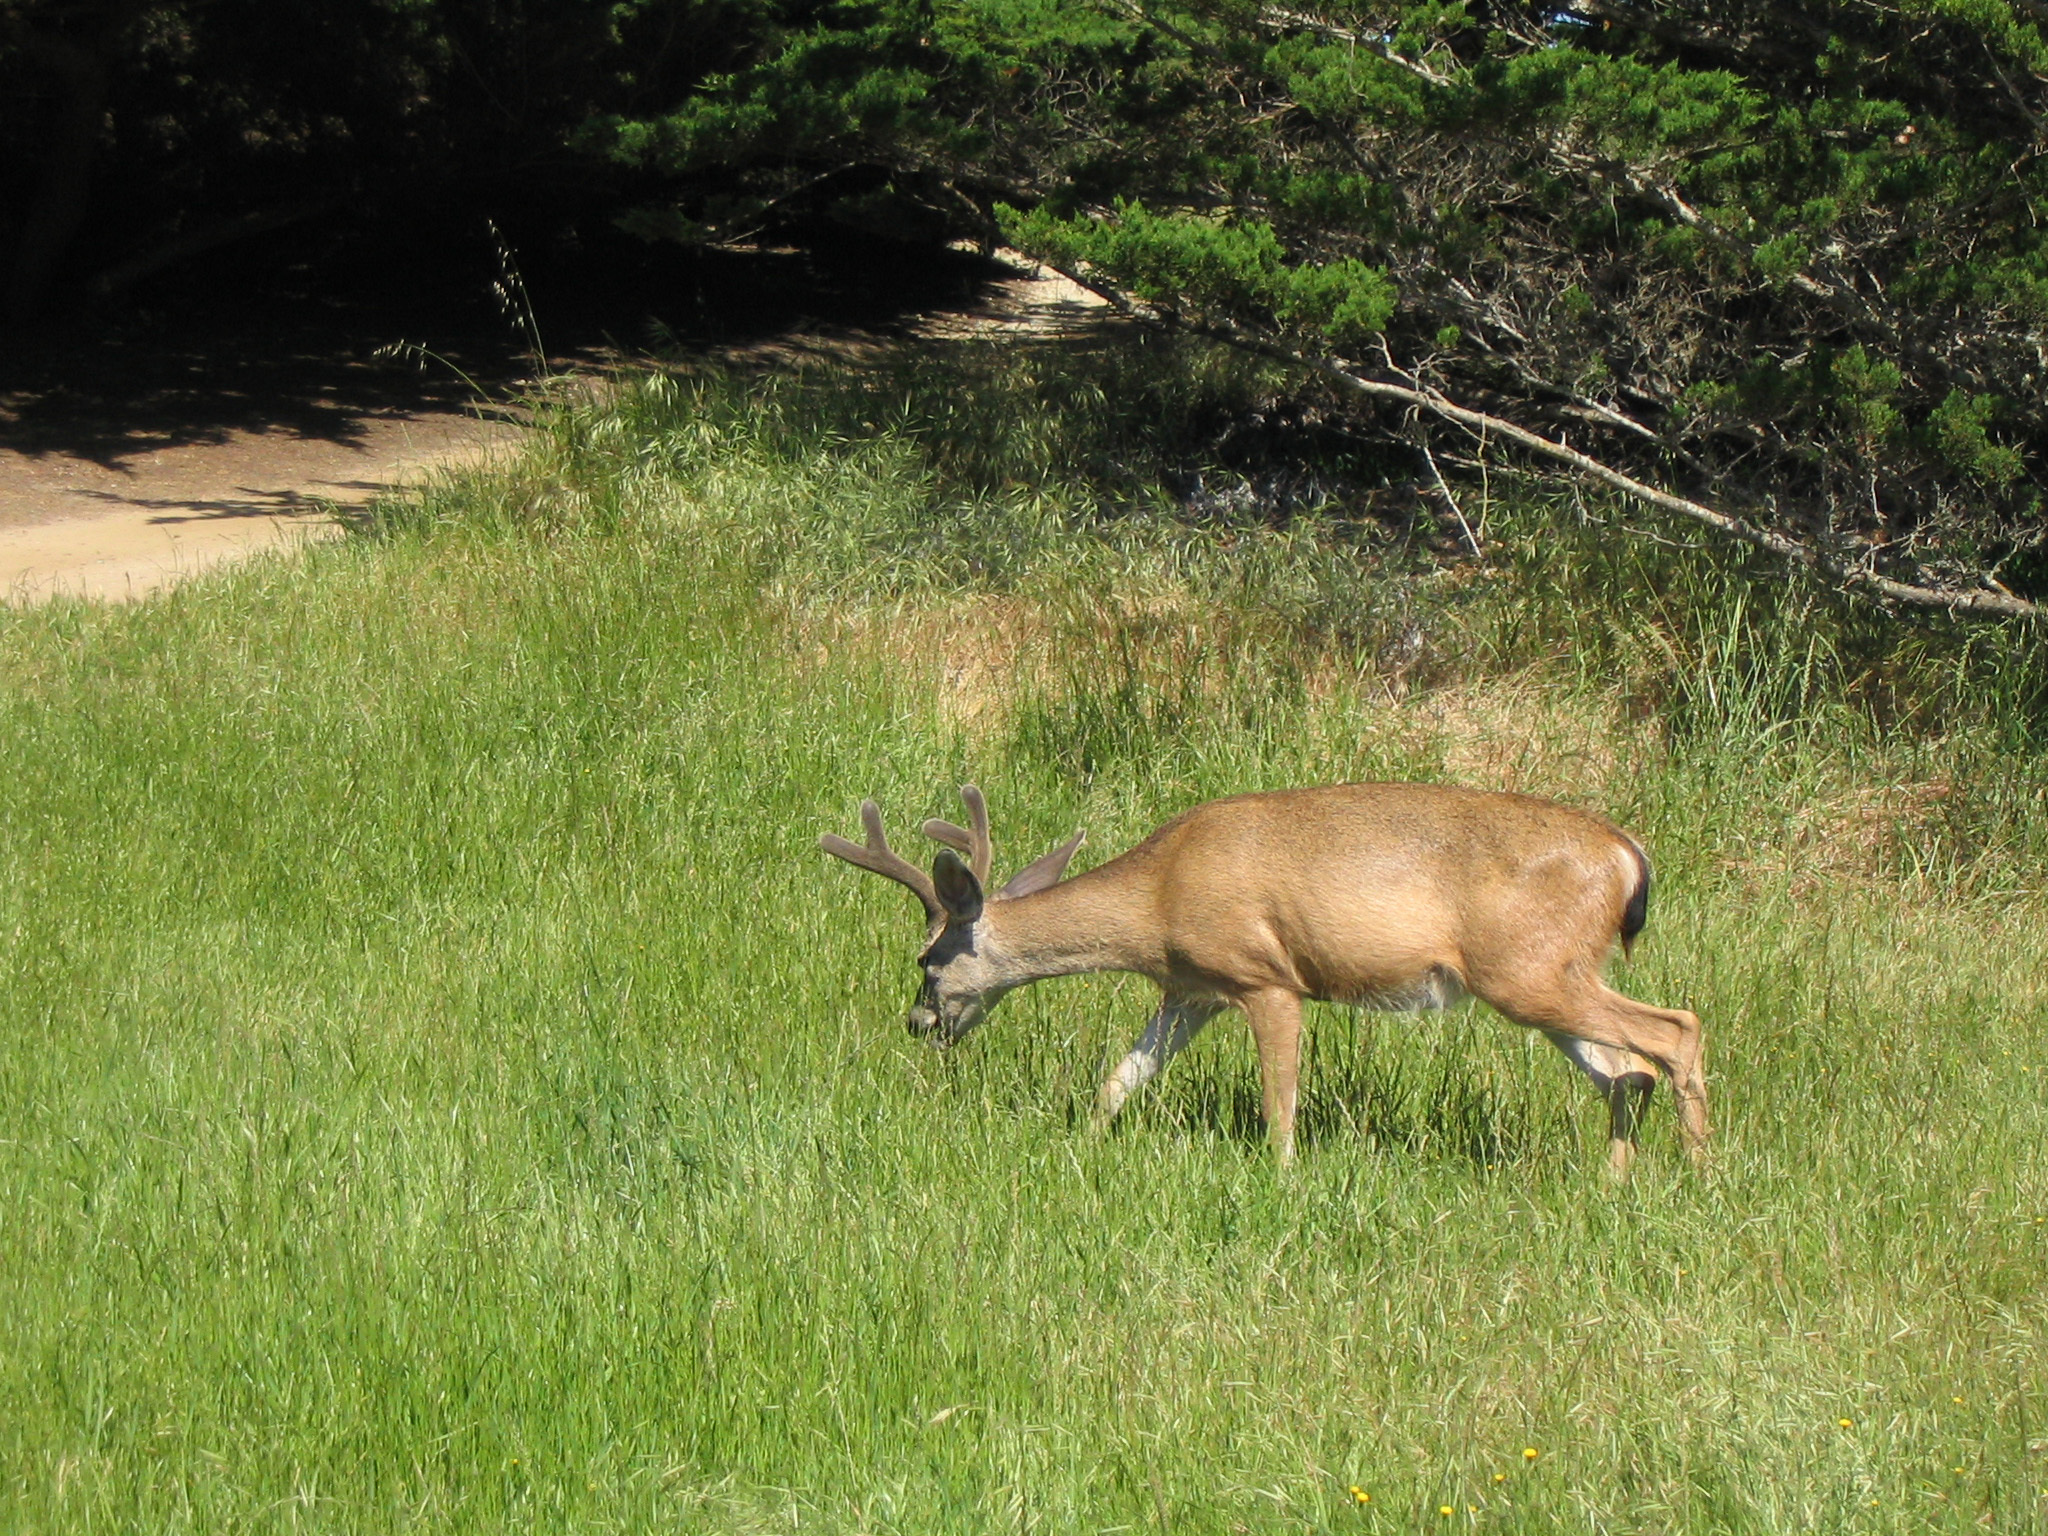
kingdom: Animalia
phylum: Chordata
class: Mammalia
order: Artiodactyla
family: Cervidae
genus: Odocoileus
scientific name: Odocoileus hemionus
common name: Mule deer
